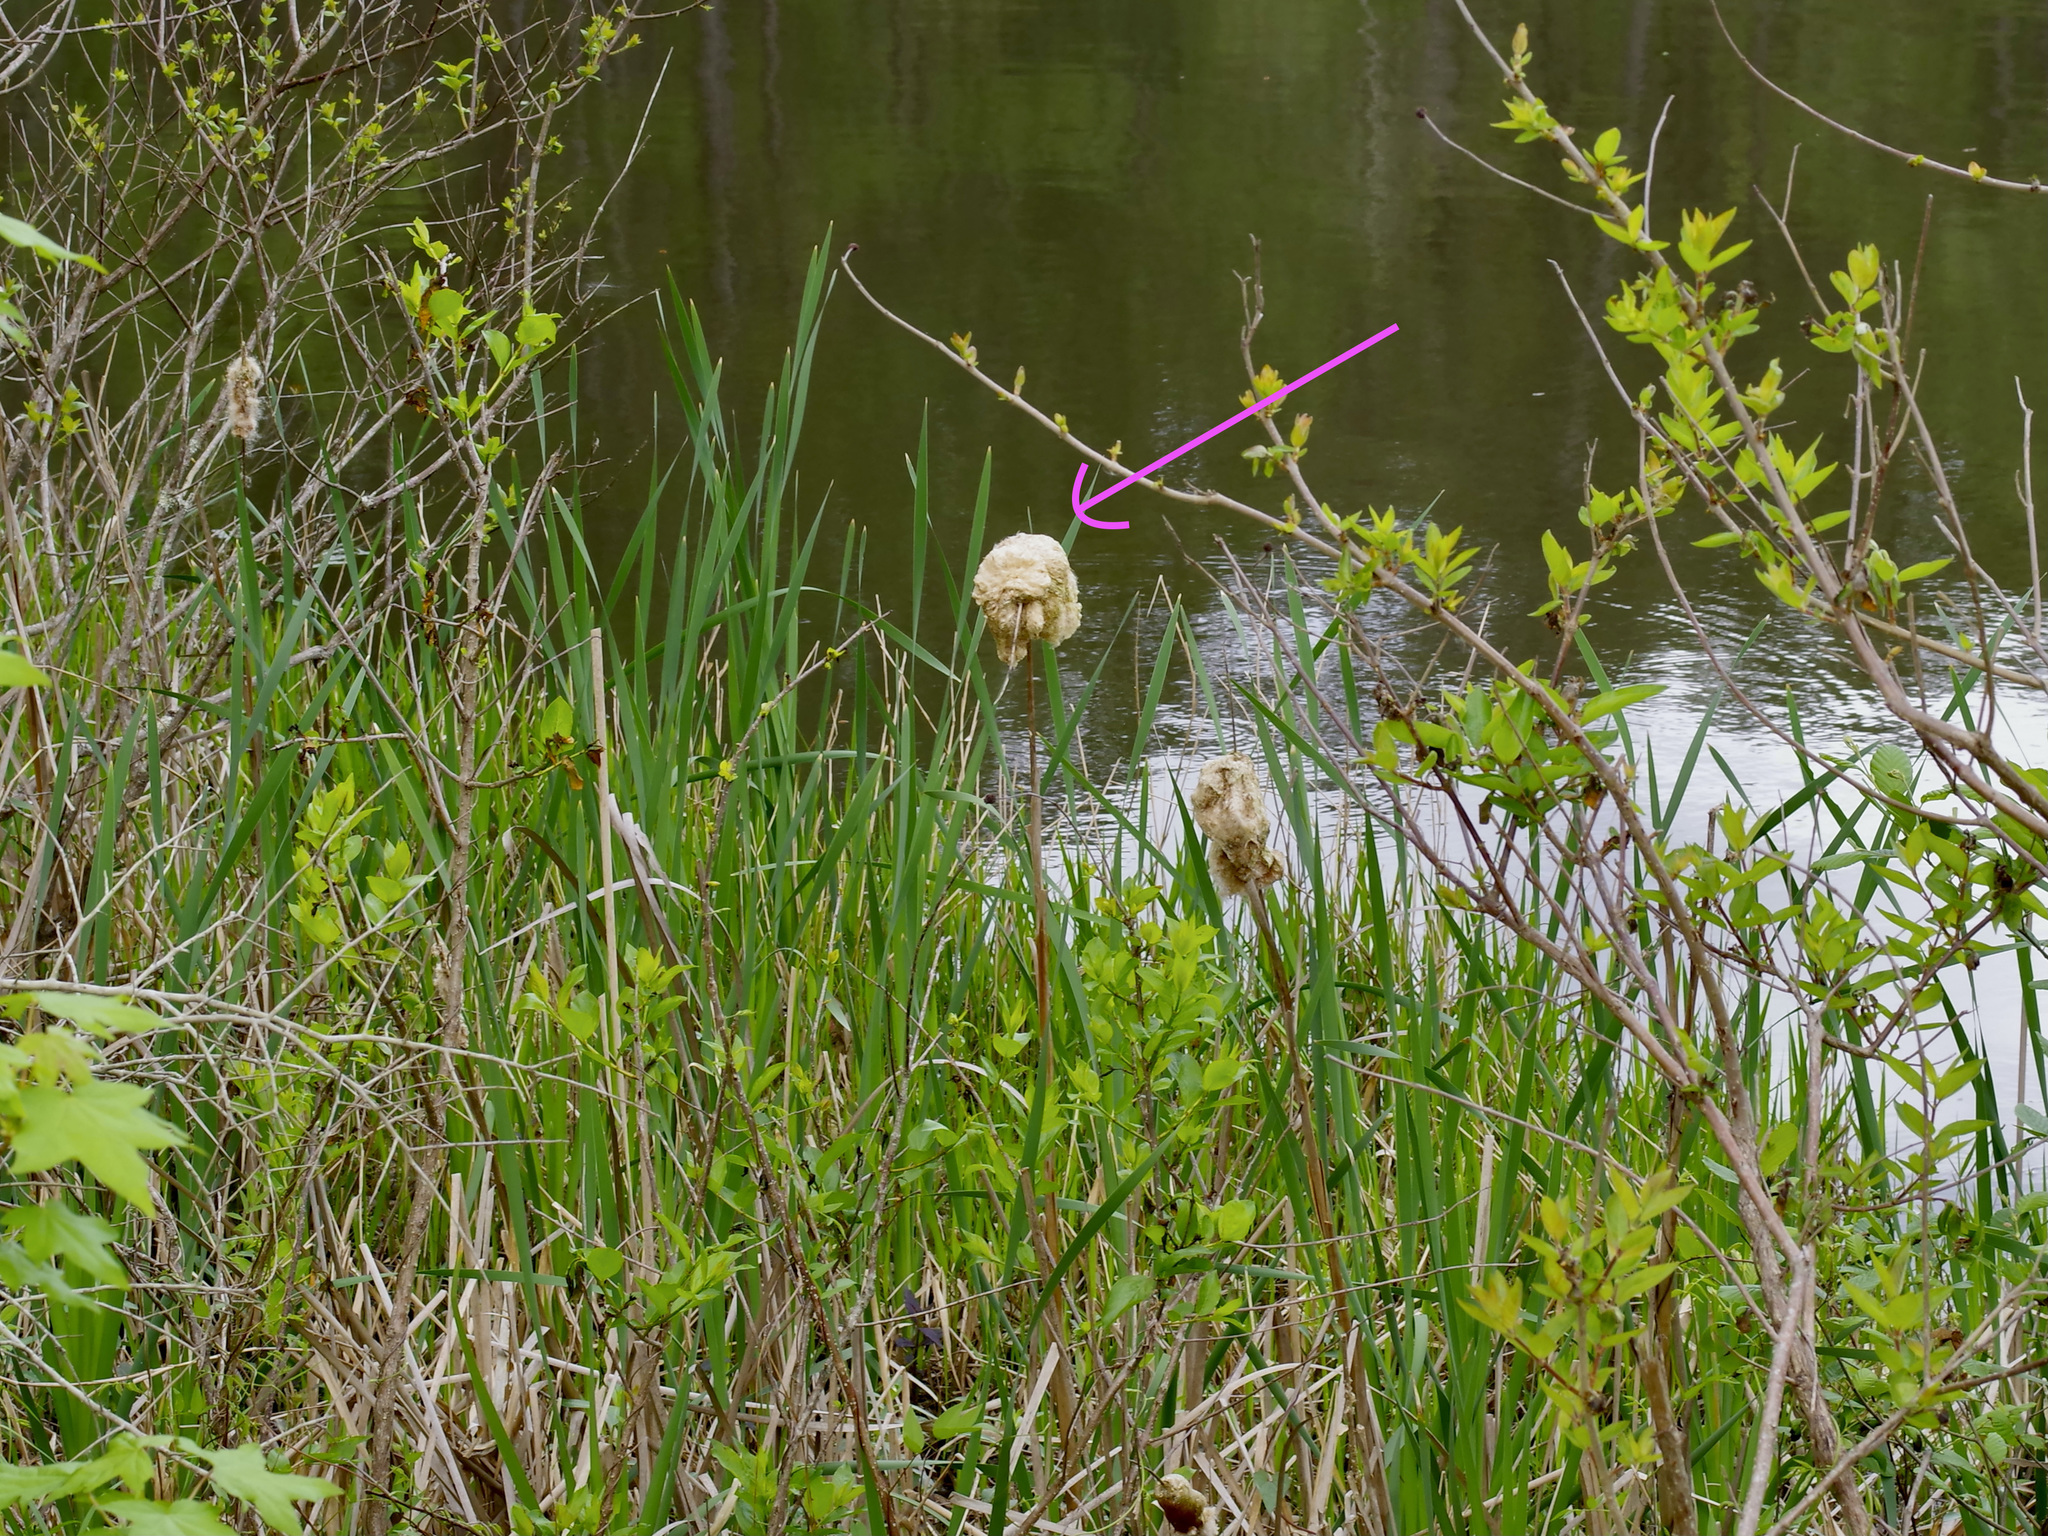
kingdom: Plantae
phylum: Tracheophyta
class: Liliopsida
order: Poales
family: Typhaceae
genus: Typha
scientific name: Typha latifolia
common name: Broadleaf cattail
